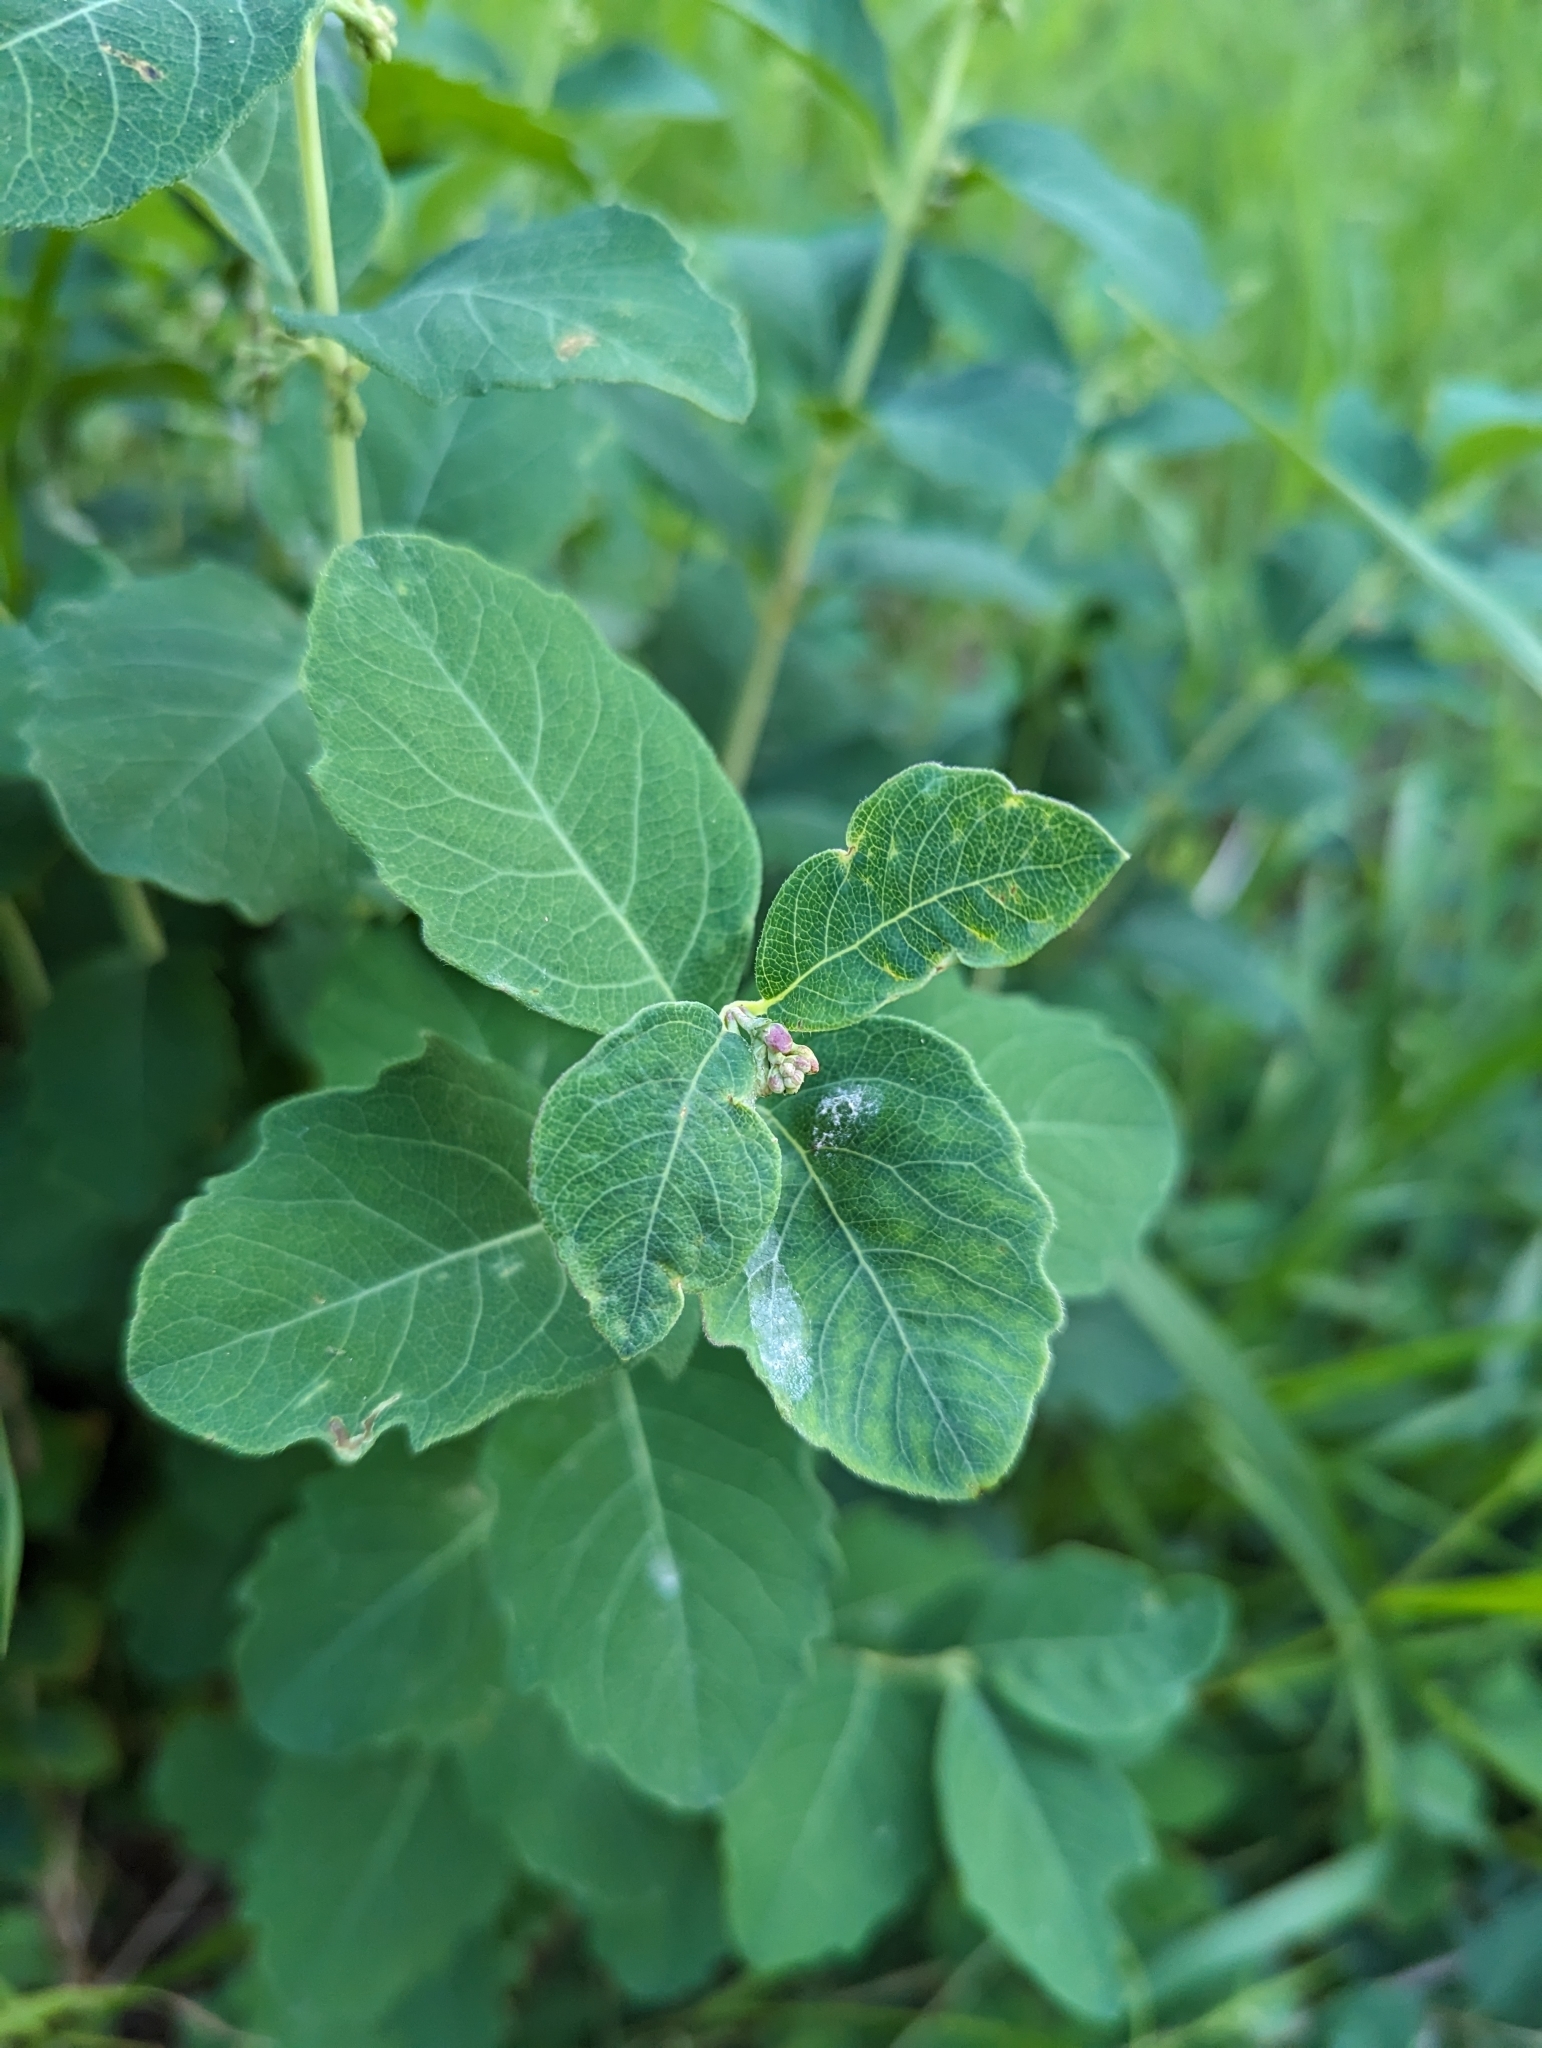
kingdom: Plantae
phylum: Tracheophyta
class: Magnoliopsida
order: Dipsacales
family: Caprifoliaceae
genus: Symphoricarpos
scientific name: Symphoricarpos occidentalis
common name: Wolfberry
